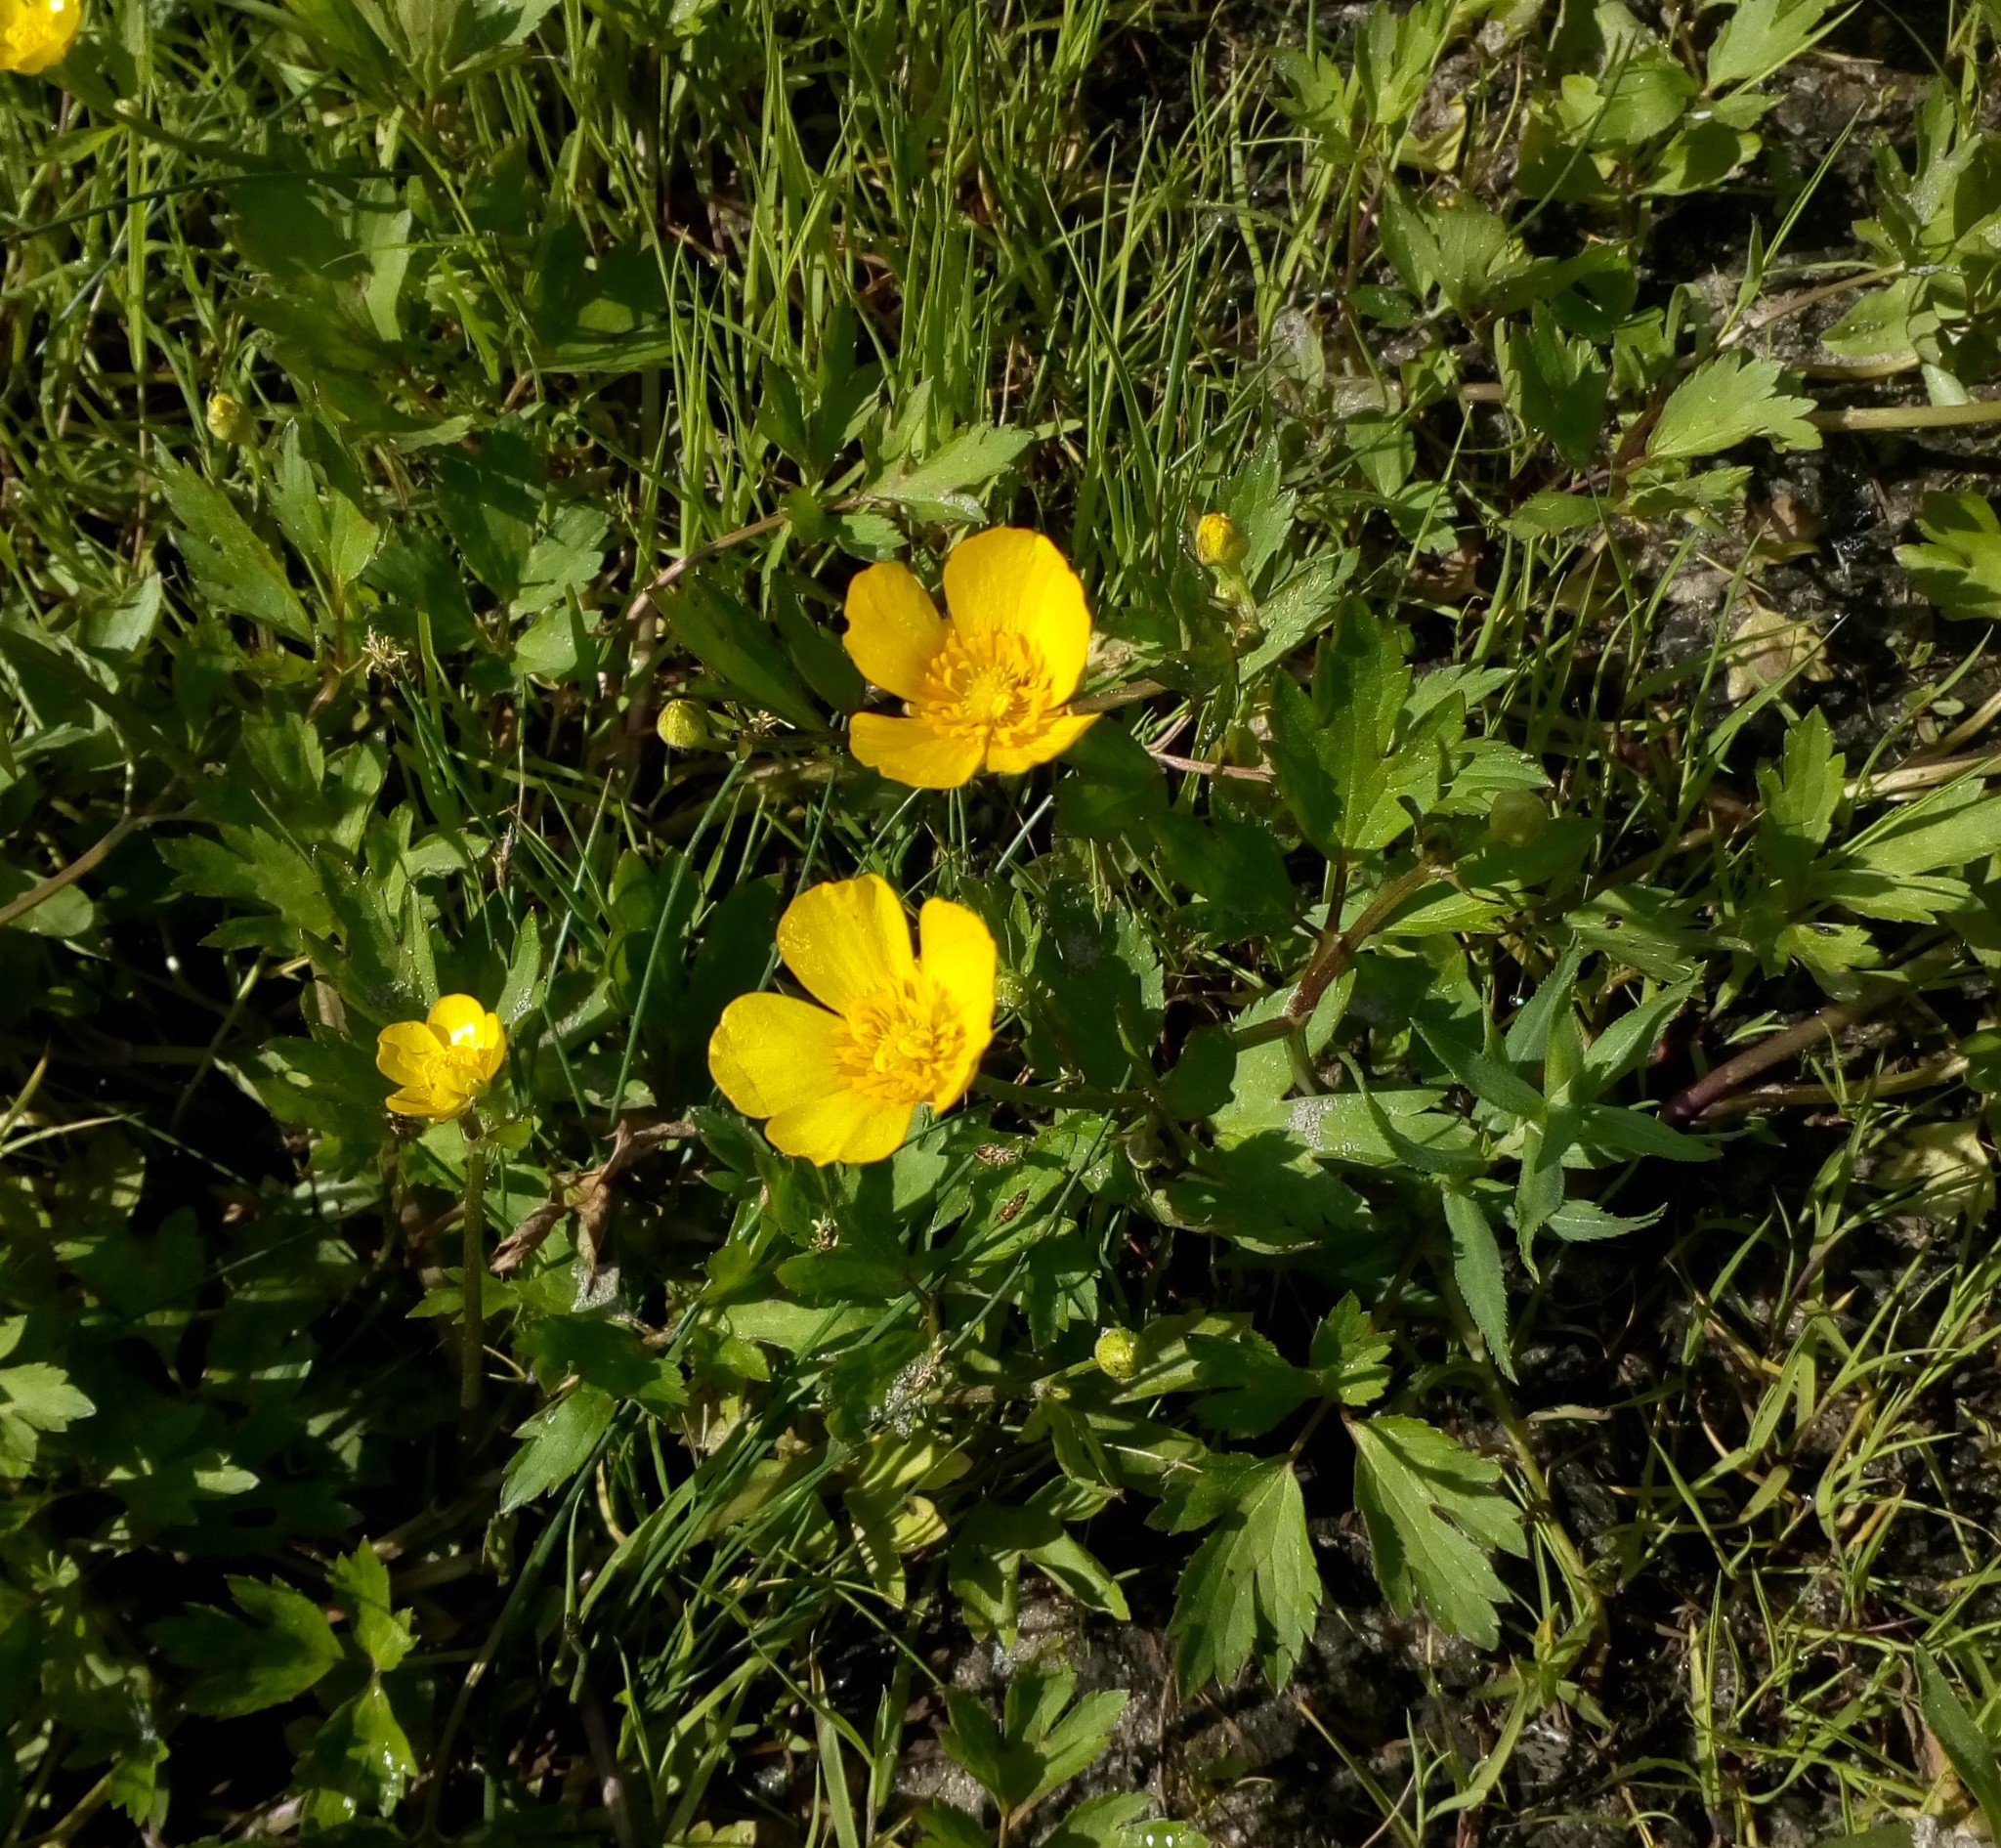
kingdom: Plantae
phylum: Tracheophyta
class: Magnoliopsida
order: Ranunculales
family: Ranunculaceae
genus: Ranunculus
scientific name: Ranunculus repens
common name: Creeping buttercup
